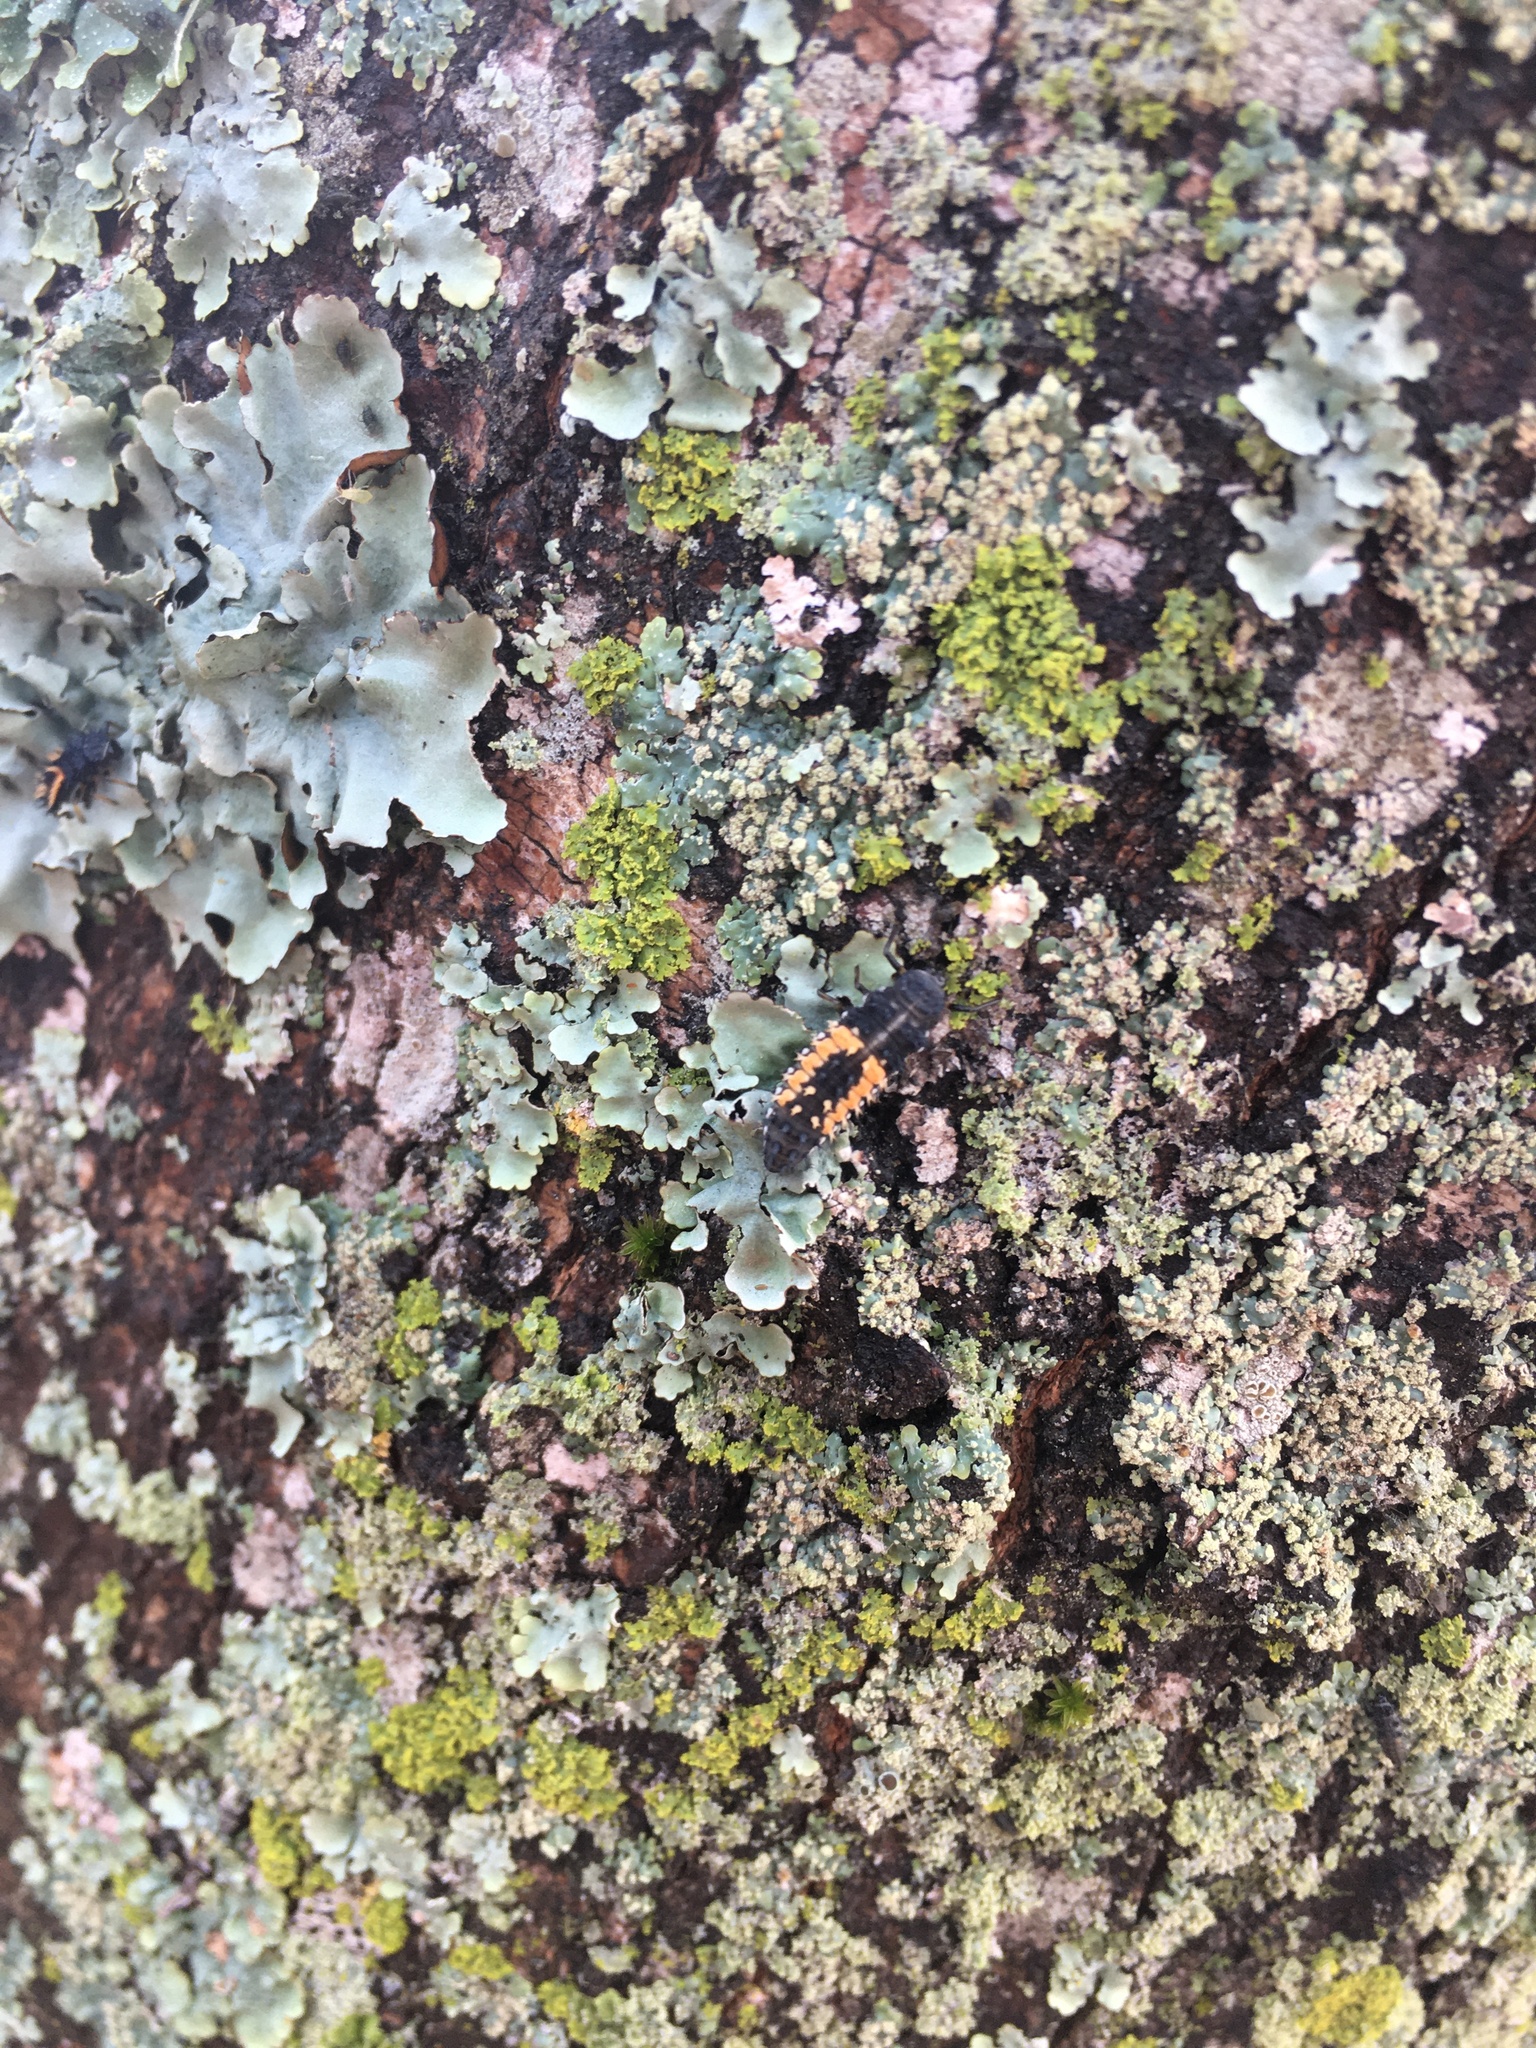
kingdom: Animalia
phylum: Arthropoda
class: Insecta
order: Coleoptera
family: Coccinellidae
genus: Harmonia
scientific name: Harmonia axyridis
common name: Harlequin ladybird
